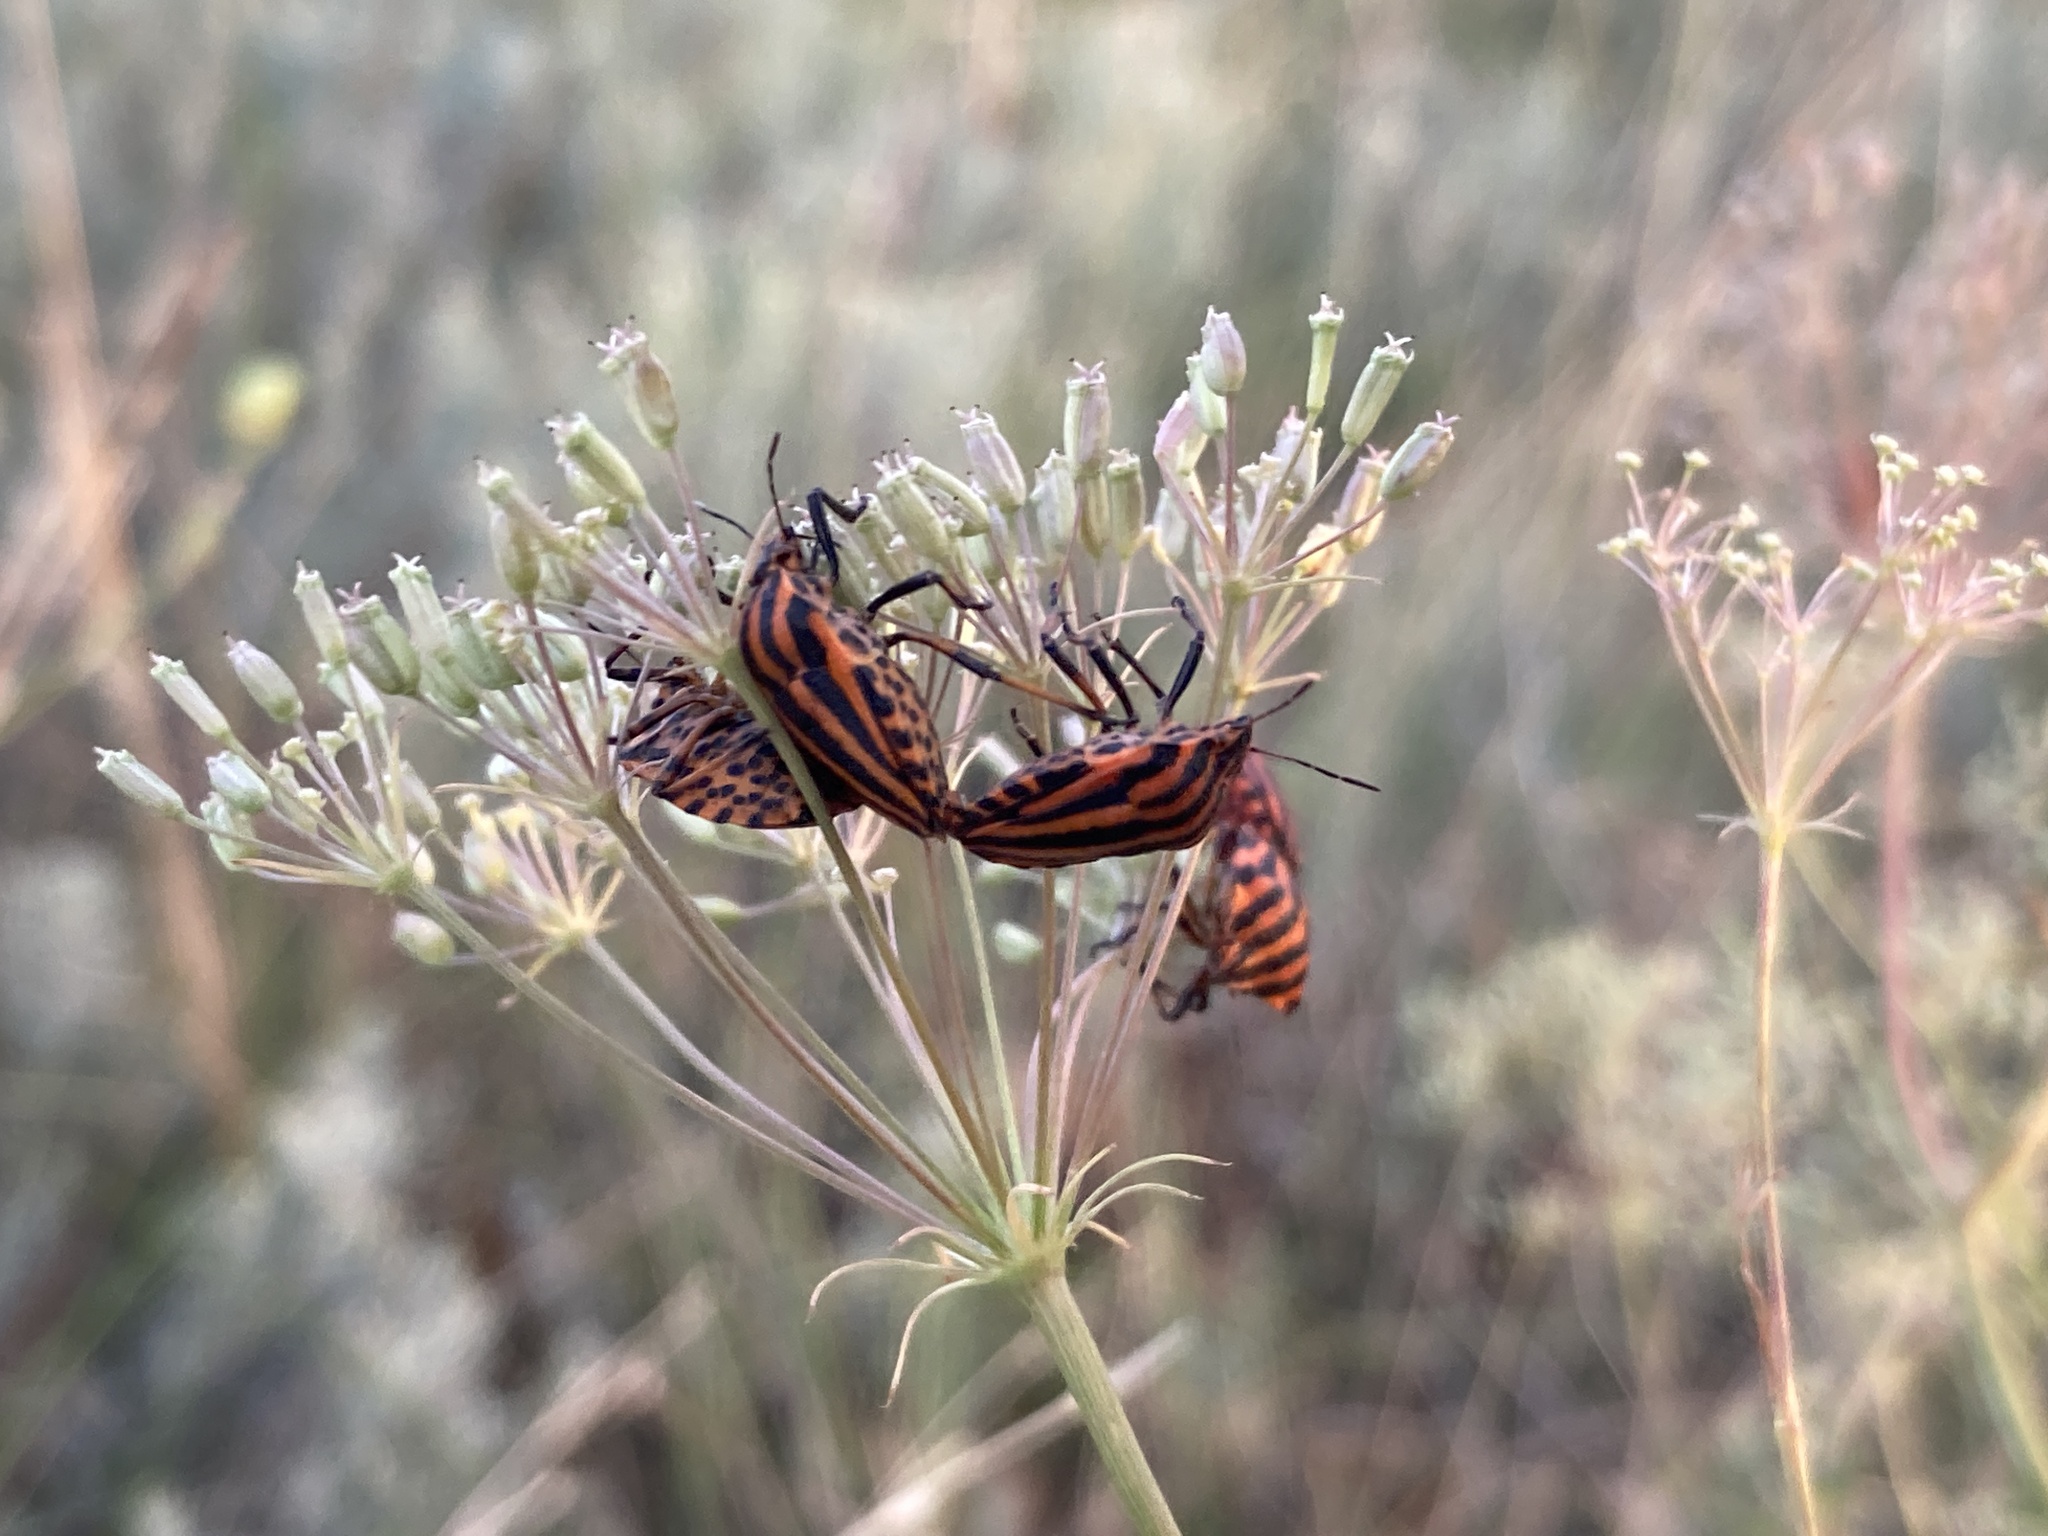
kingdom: Animalia
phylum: Arthropoda
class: Insecta
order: Hemiptera
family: Pentatomidae
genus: Graphosoma
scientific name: Graphosoma italicum
